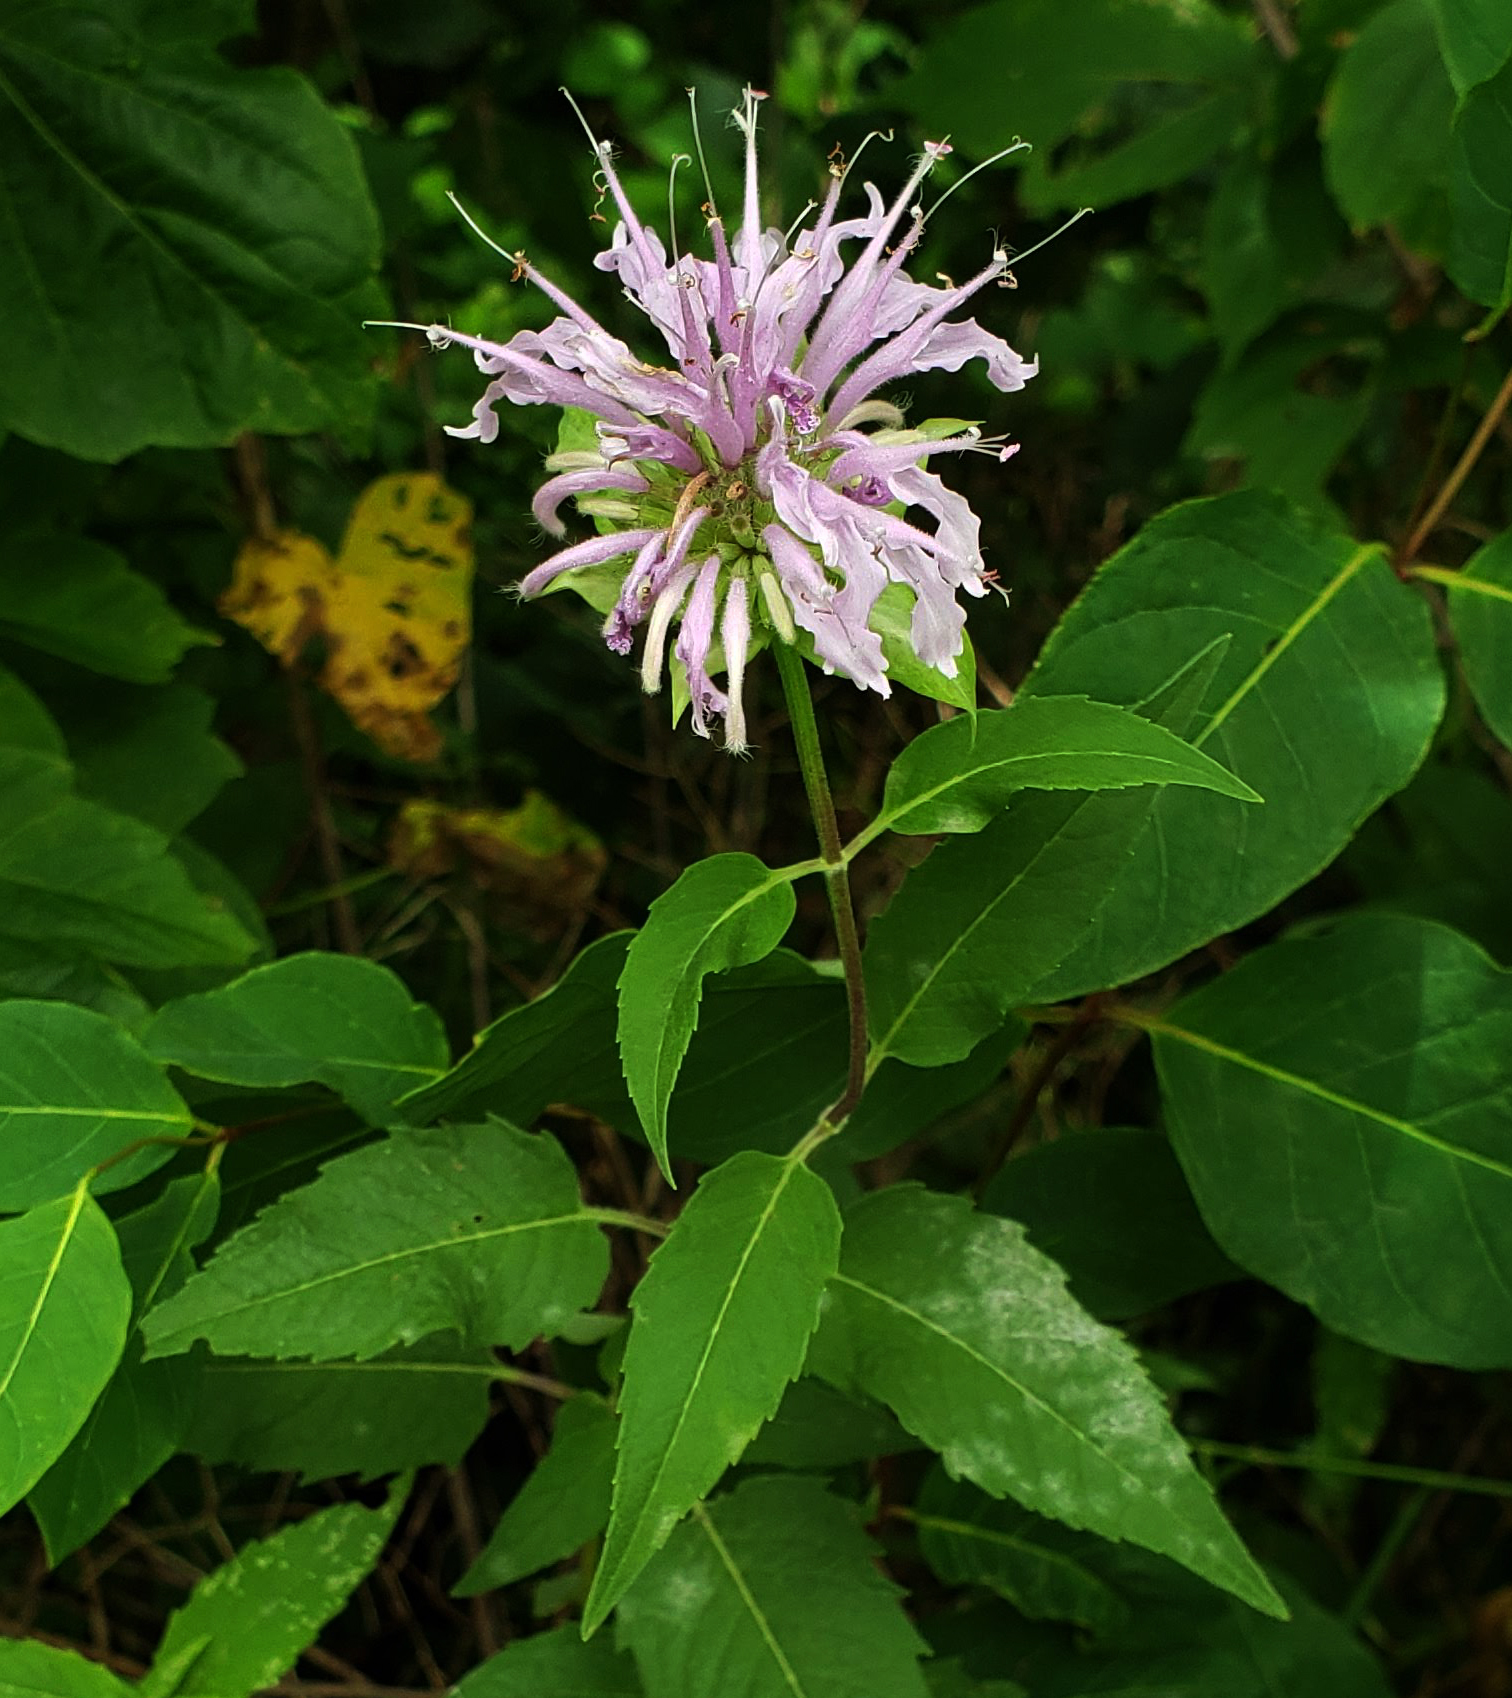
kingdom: Plantae
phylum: Tracheophyta
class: Magnoliopsida
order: Lamiales
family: Lamiaceae
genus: Monarda
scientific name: Monarda fistulosa
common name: Purple beebalm
